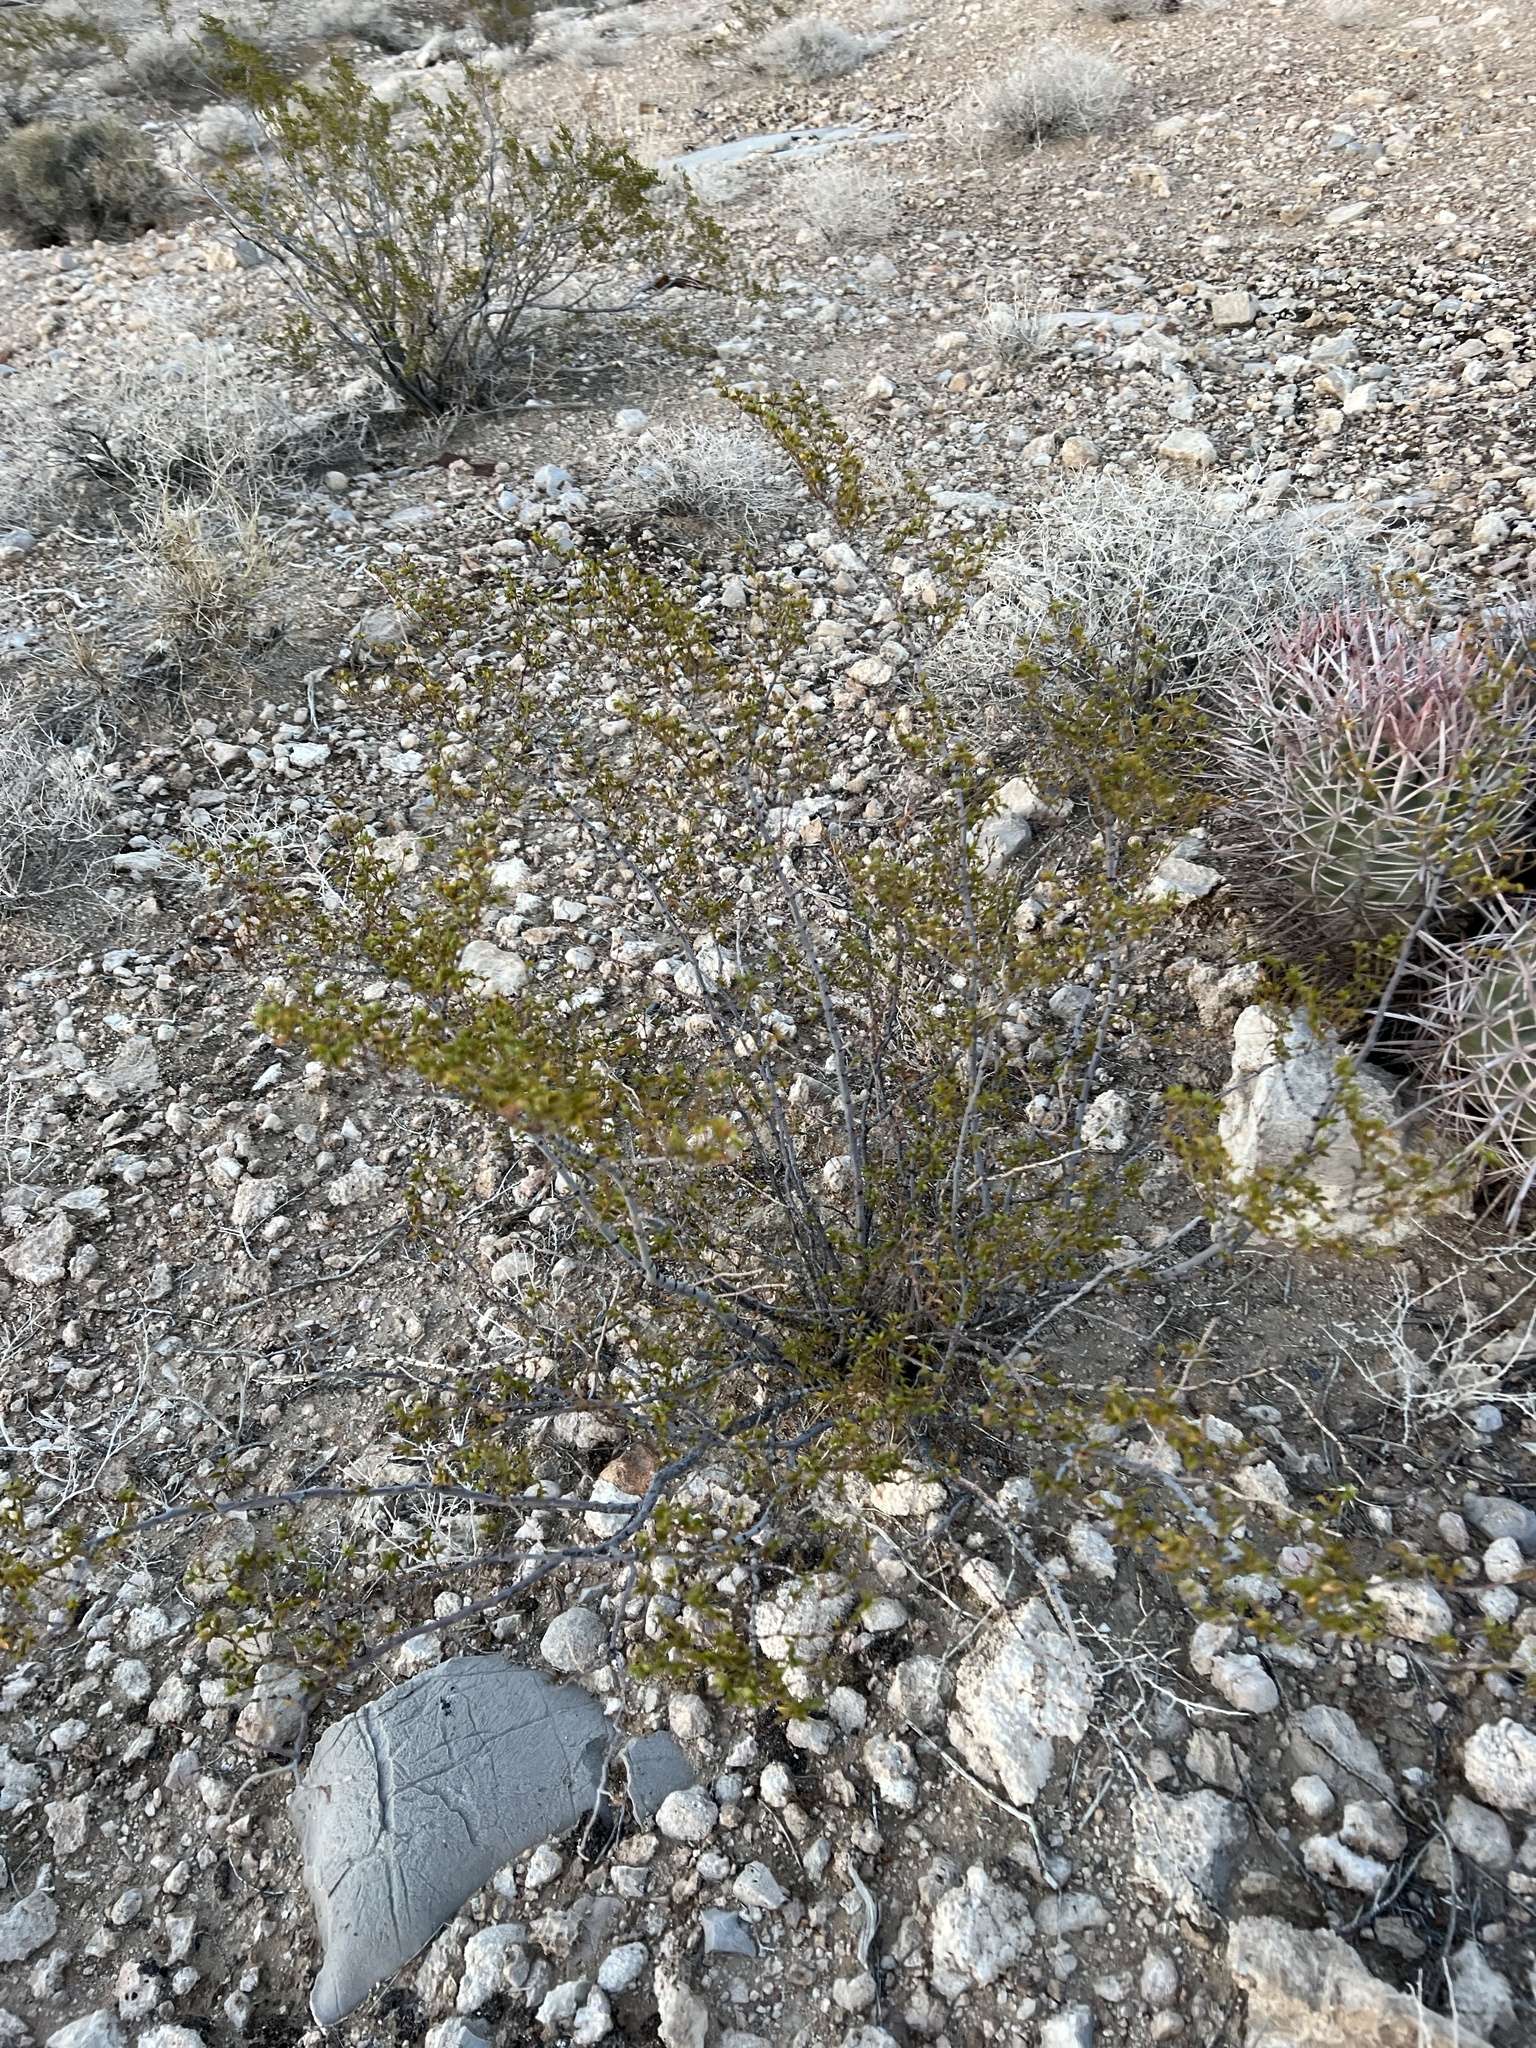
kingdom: Plantae
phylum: Tracheophyta
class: Magnoliopsida
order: Zygophyllales
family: Zygophyllaceae
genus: Larrea
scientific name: Larrea tridentata
